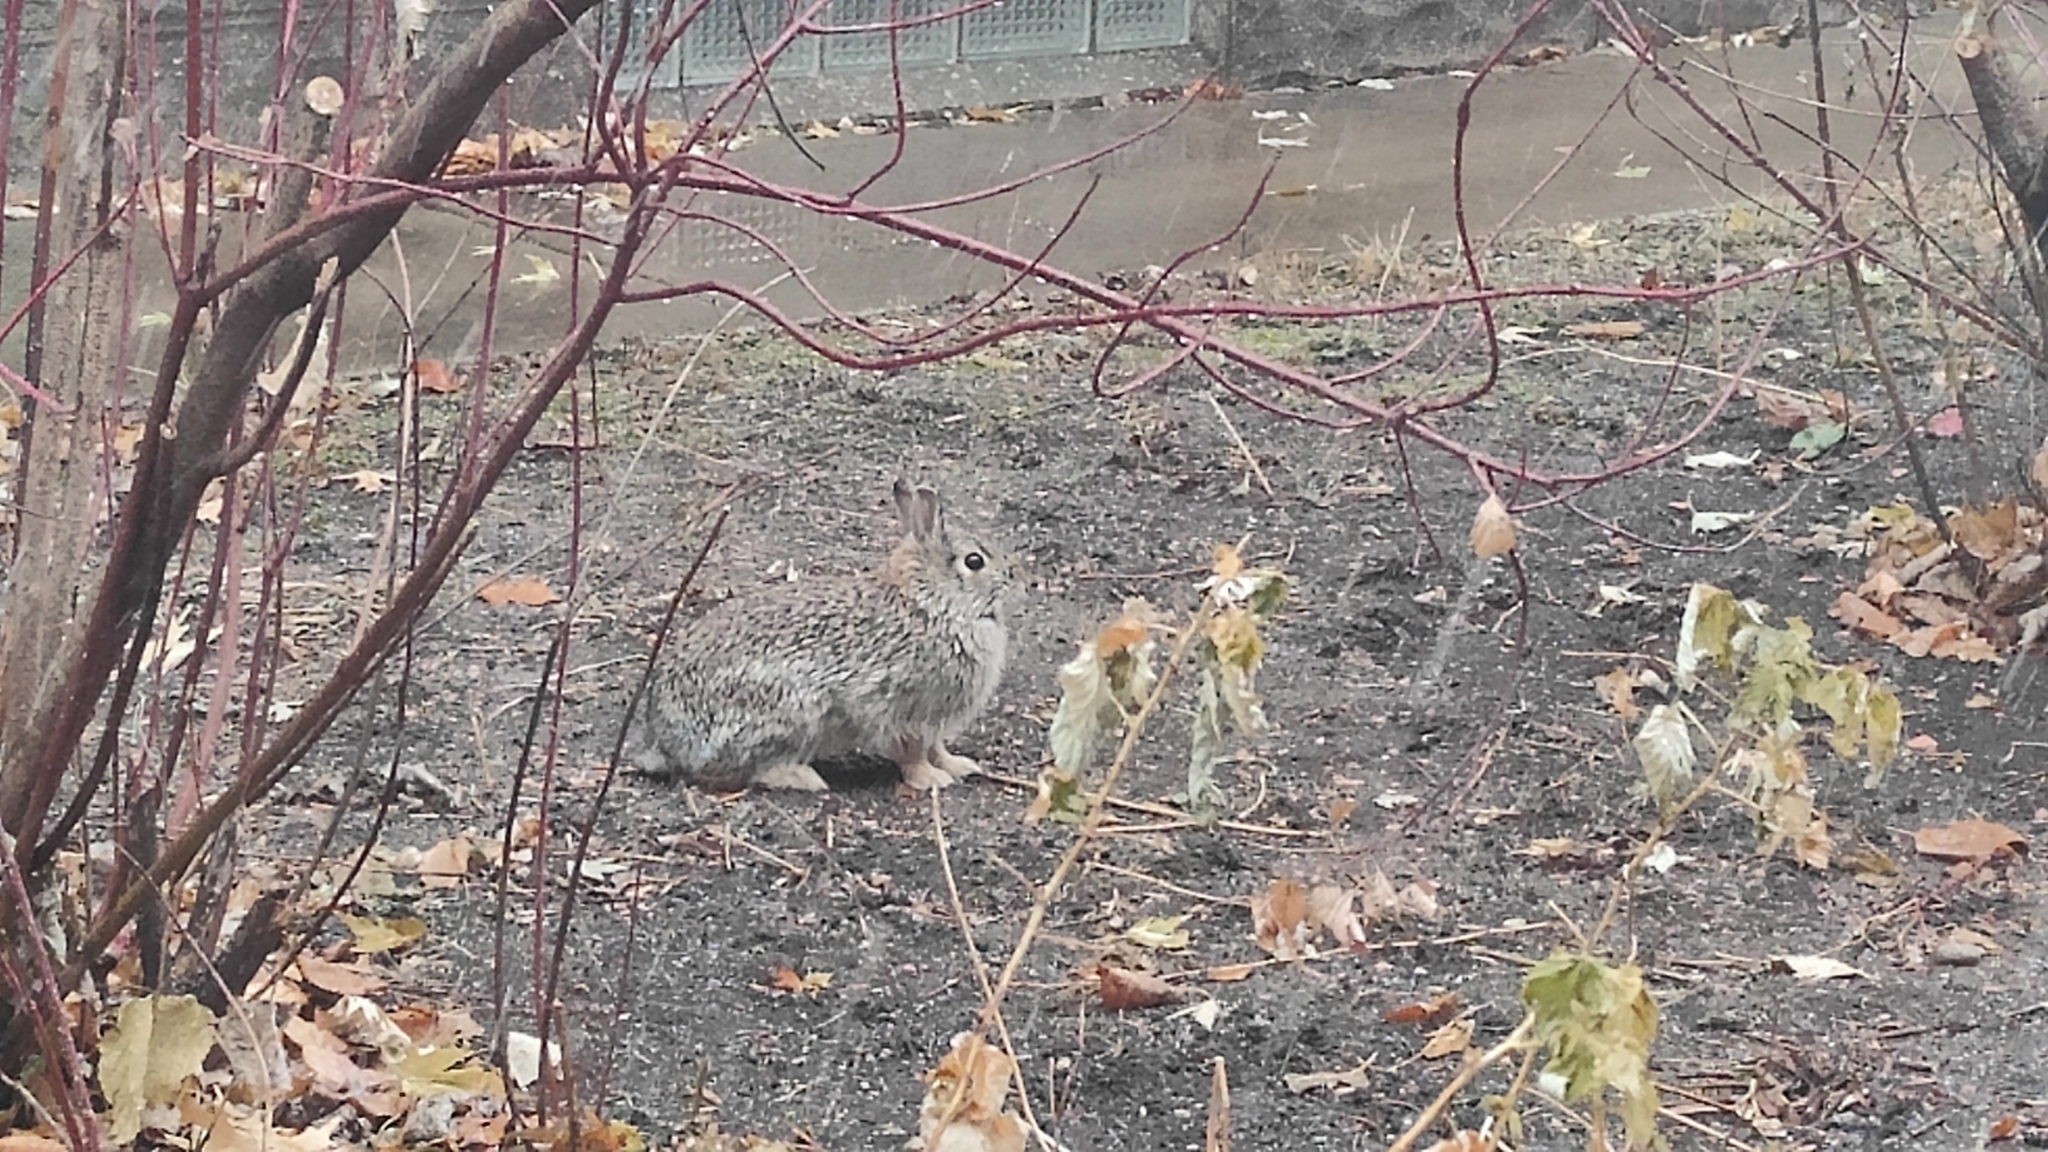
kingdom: Animalia
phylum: Chordata
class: Mammalia
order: Lagomorpha
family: Leporidae
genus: Sylvilagus
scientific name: Sylvilagus floridanus
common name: Eastern cottontail
